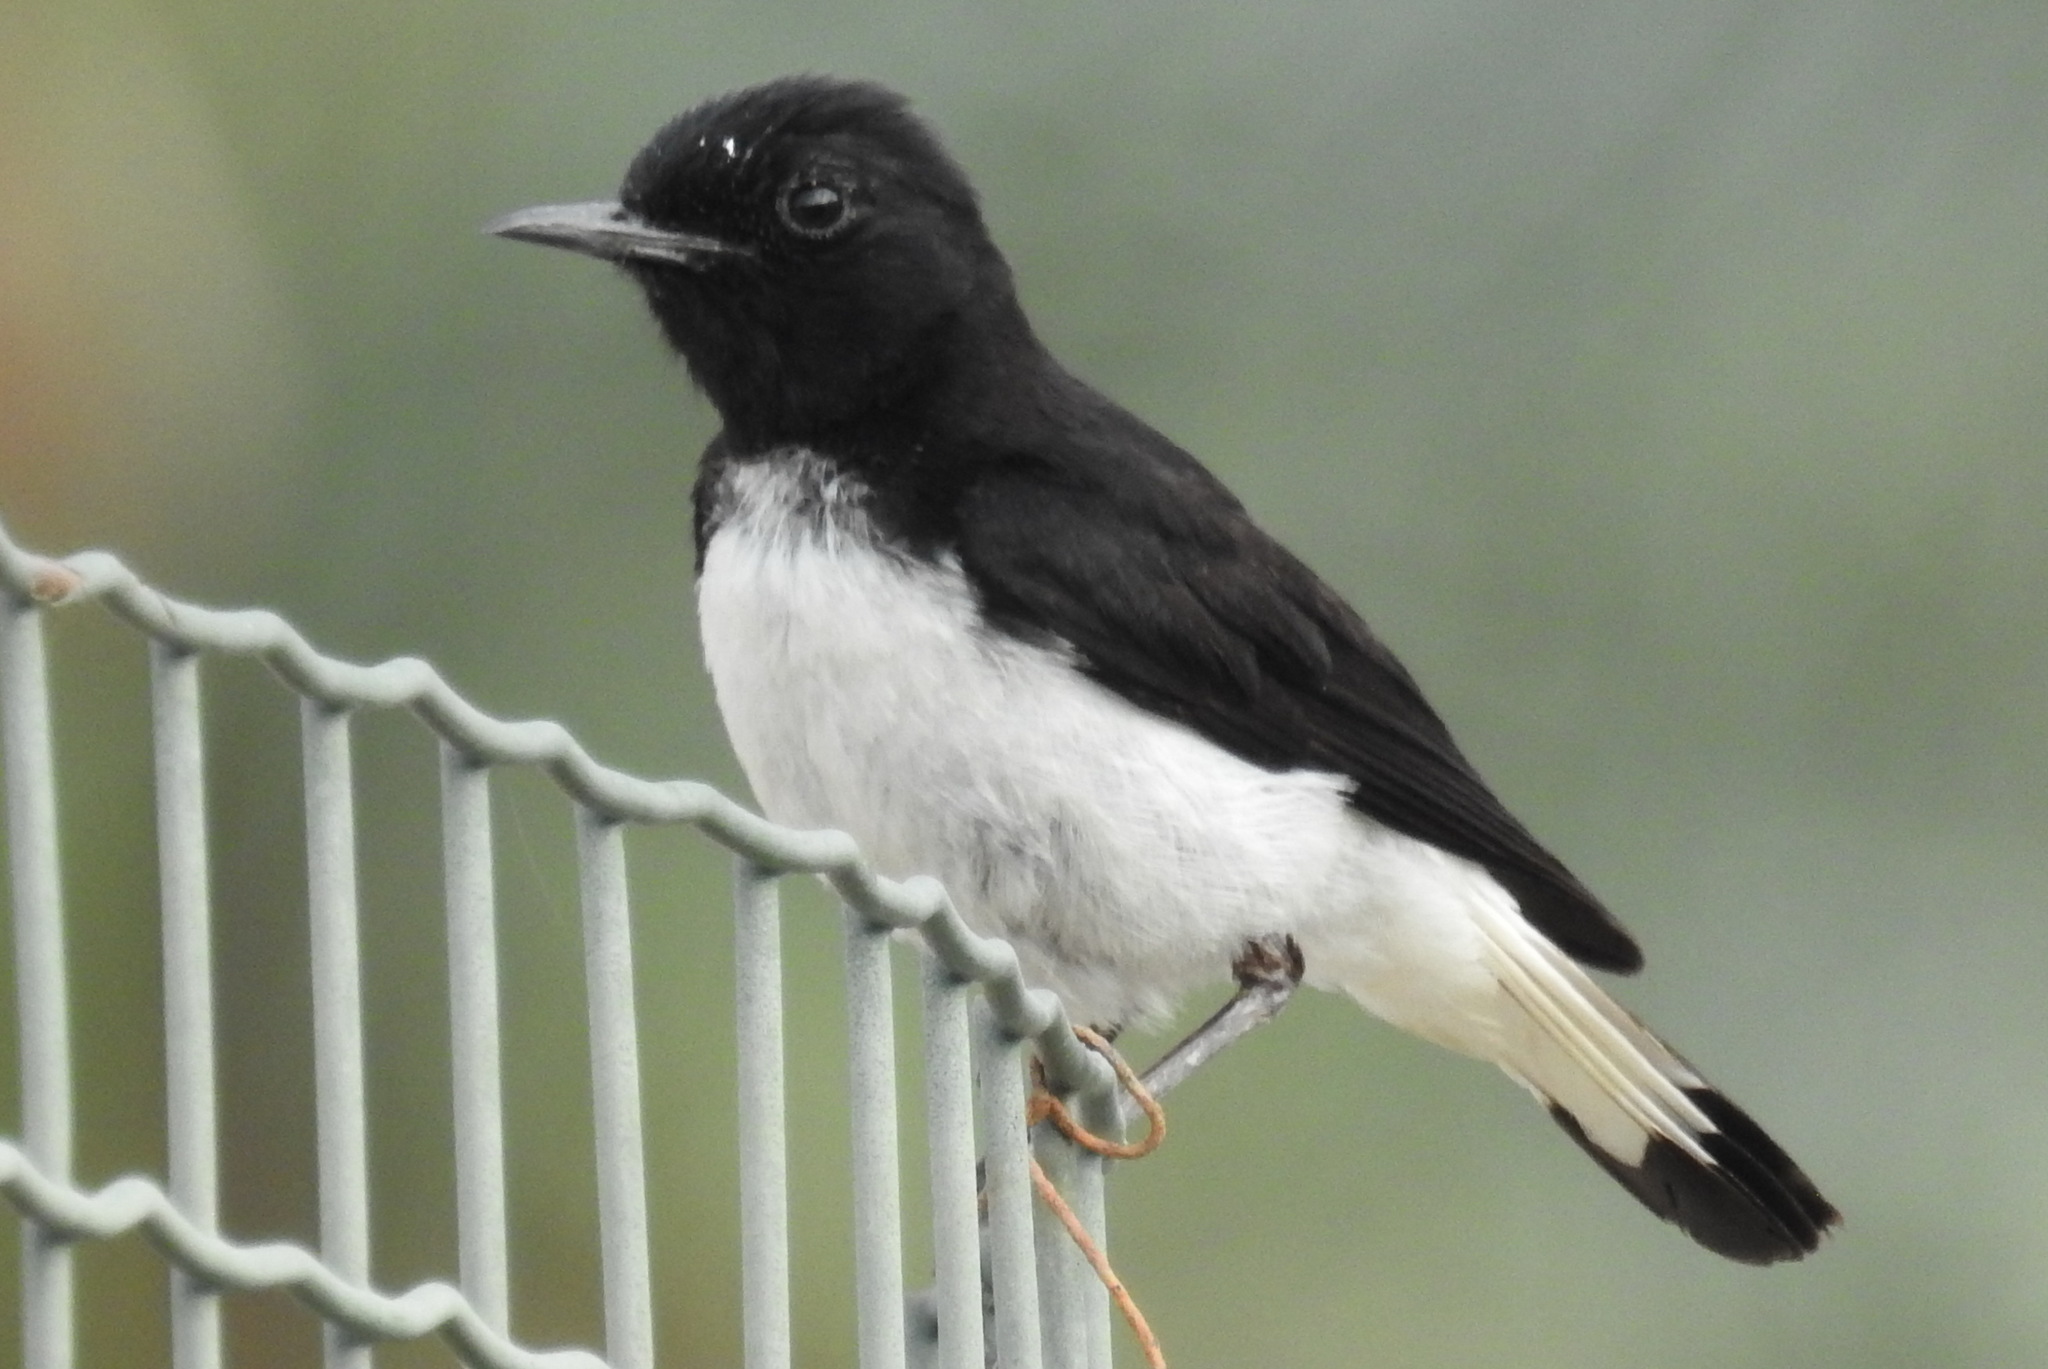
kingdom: Animalia
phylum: Chordata
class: Aves
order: Passeriformes
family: Muscicapidae
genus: Oenanthe
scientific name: Oenanthe albonigra
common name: Hume's wheatear
